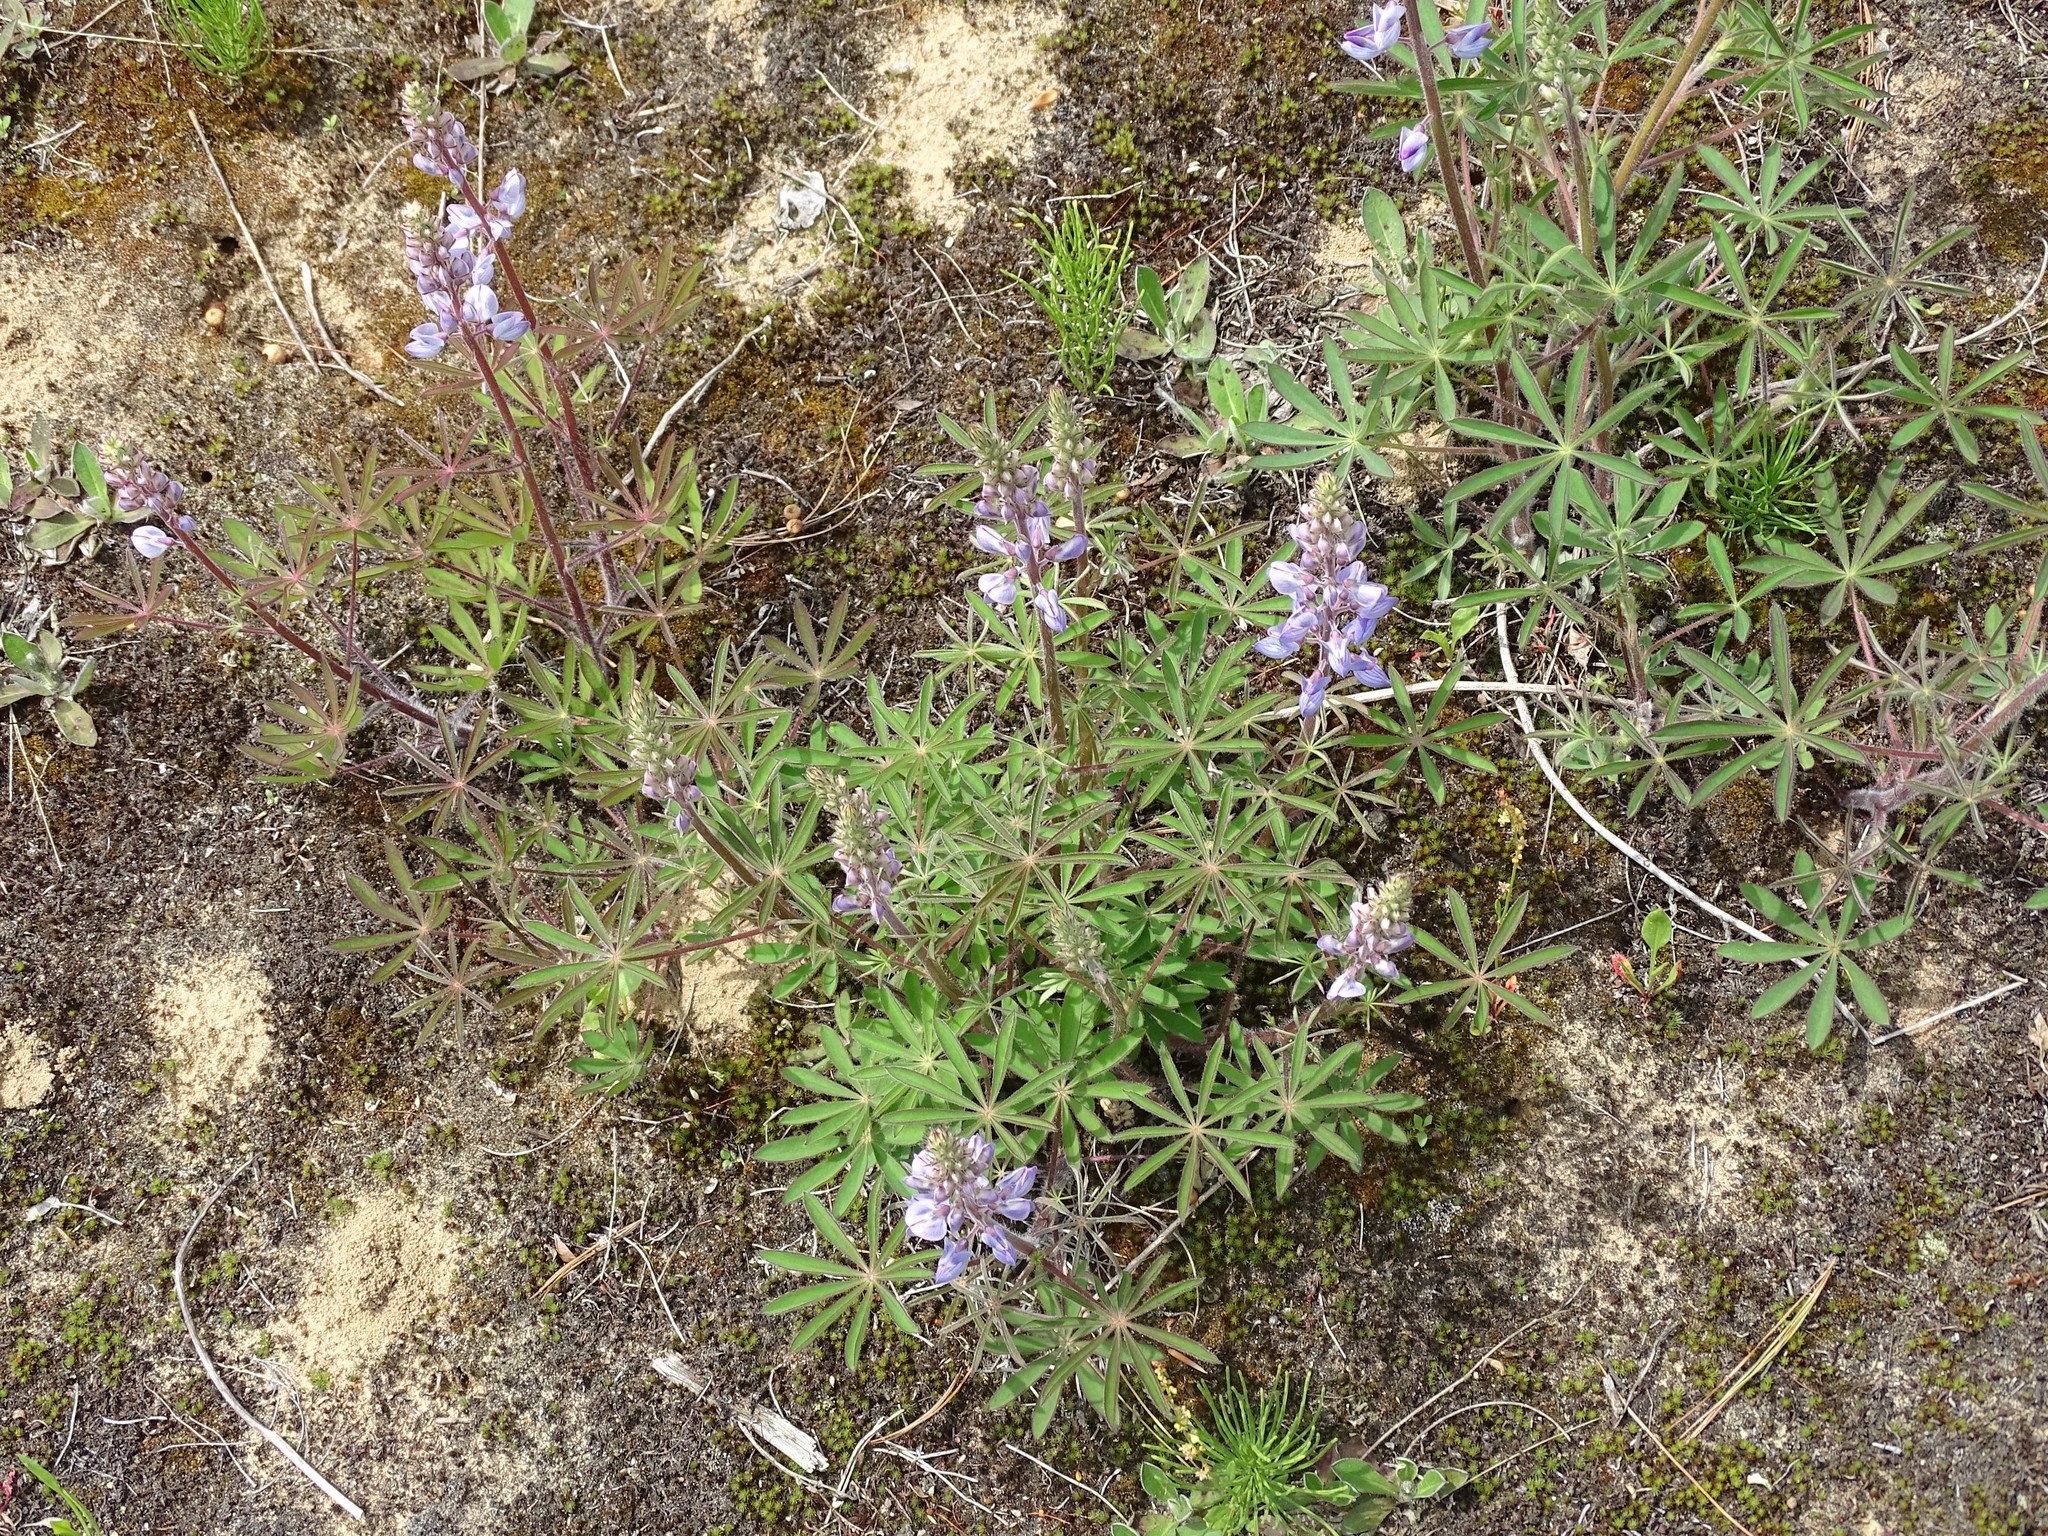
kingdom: Plantae
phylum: Tracheophyta
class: Magnoliopsida
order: Fabales
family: Fabaceae
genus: Lupinus
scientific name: Lupinus perennis
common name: Sundial lupine
